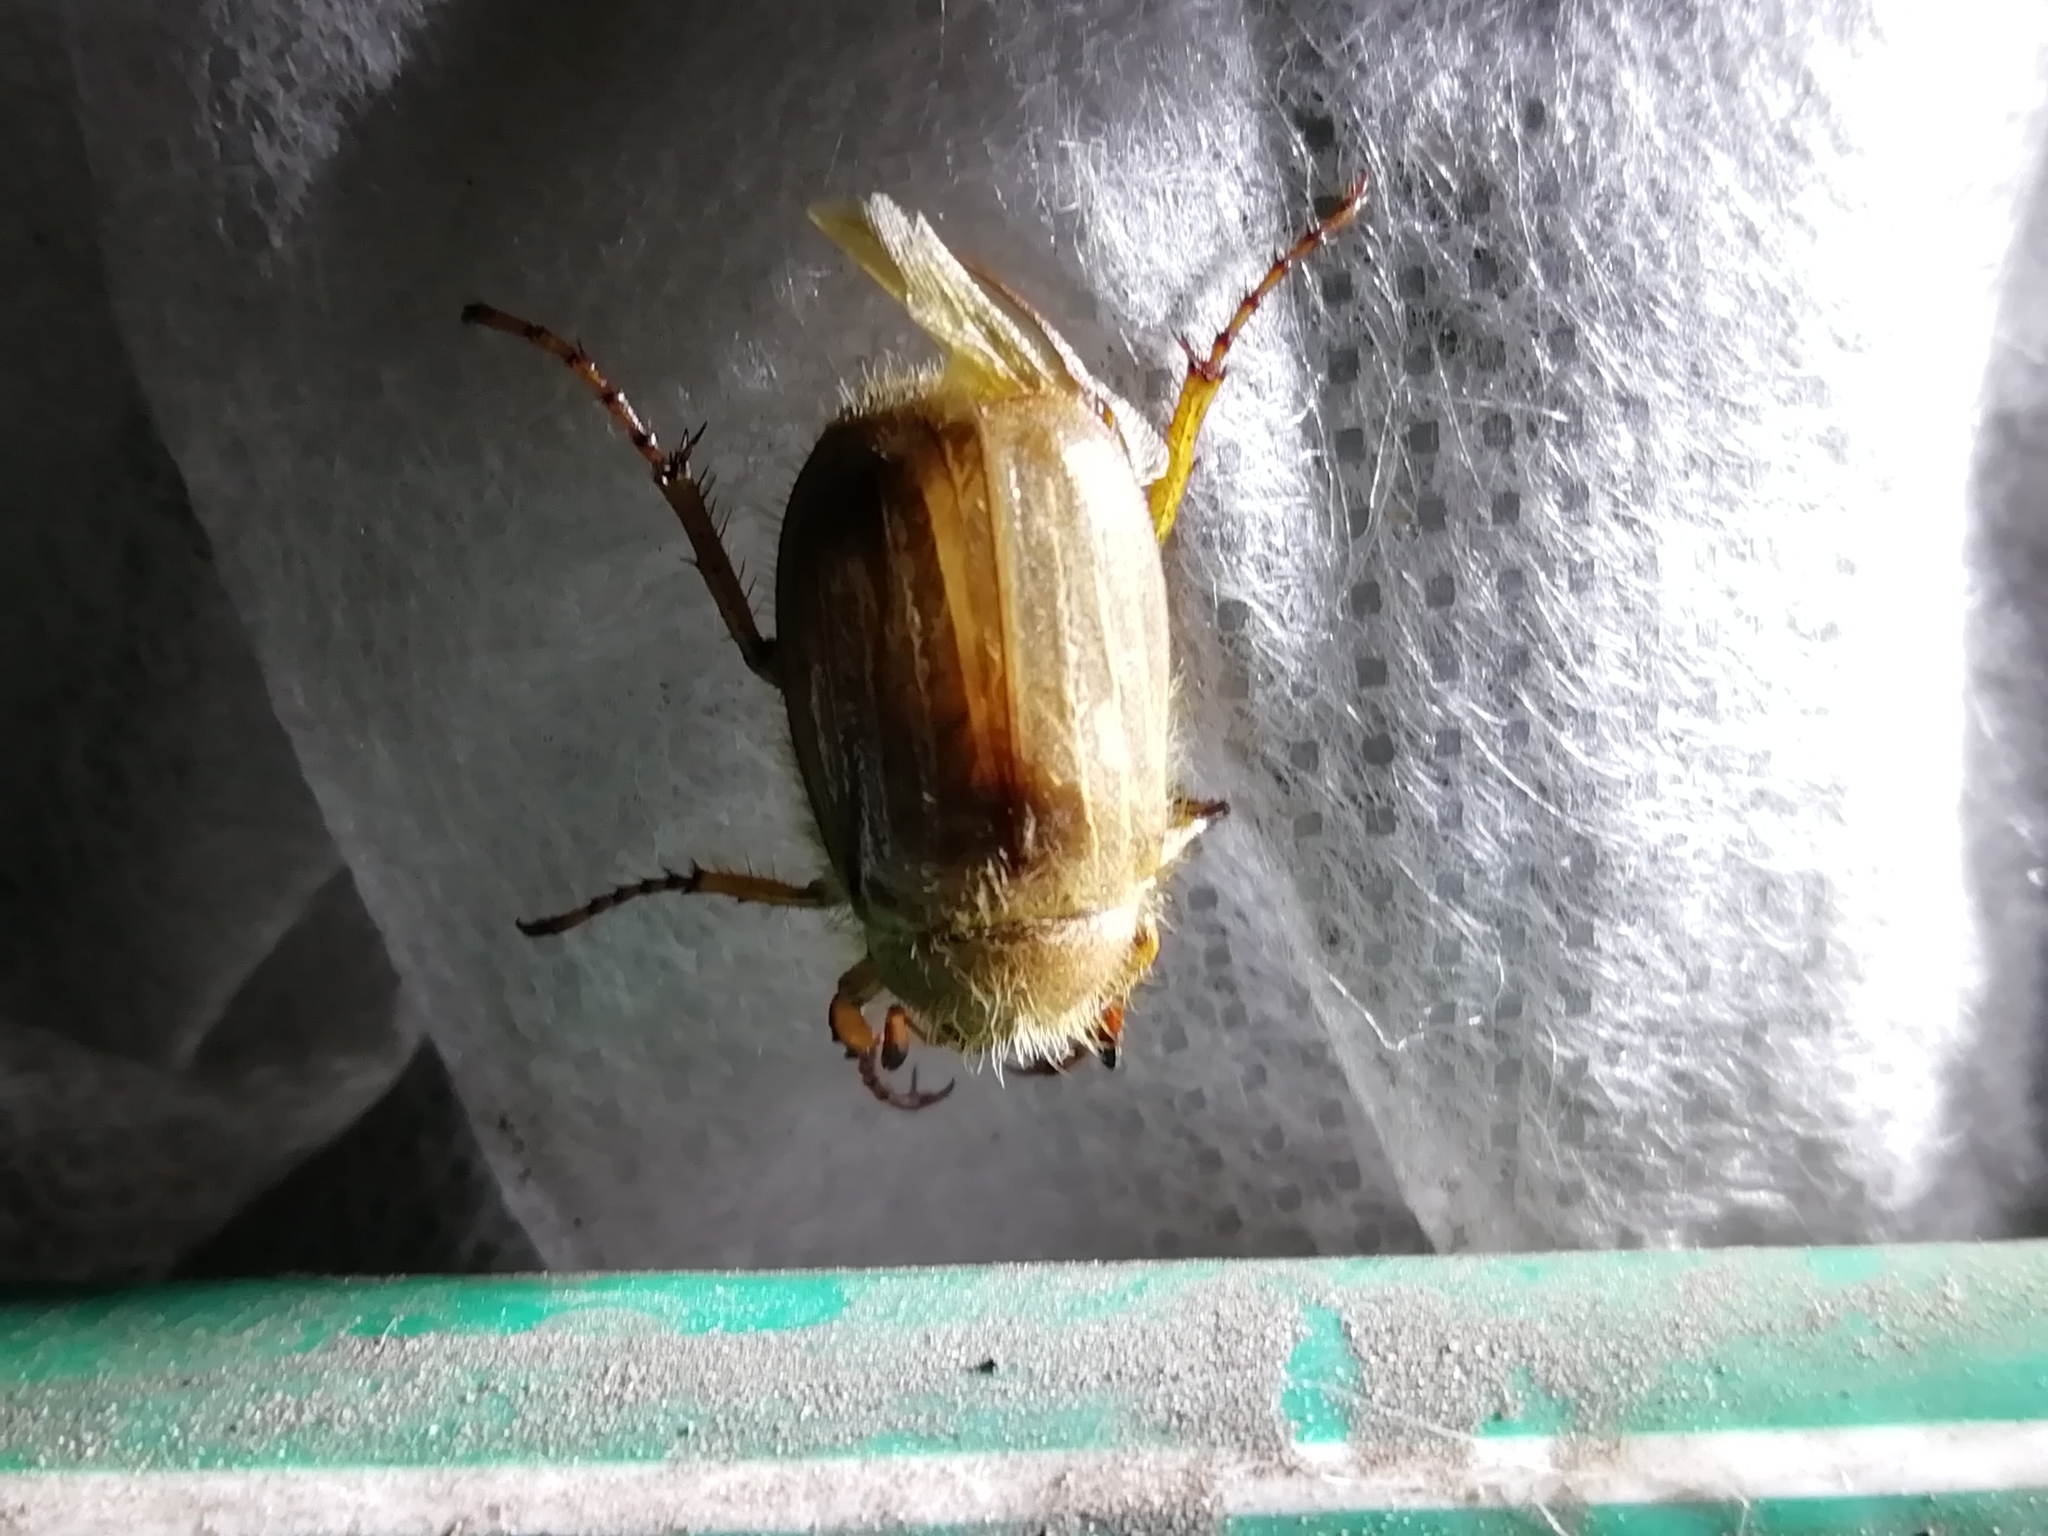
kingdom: Animalia
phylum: Arthropoda
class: Insecta
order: Coleoptera
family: Scarabaeidae
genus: Amphimallon
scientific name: Amphimallon solstitiale
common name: Summer chafer
